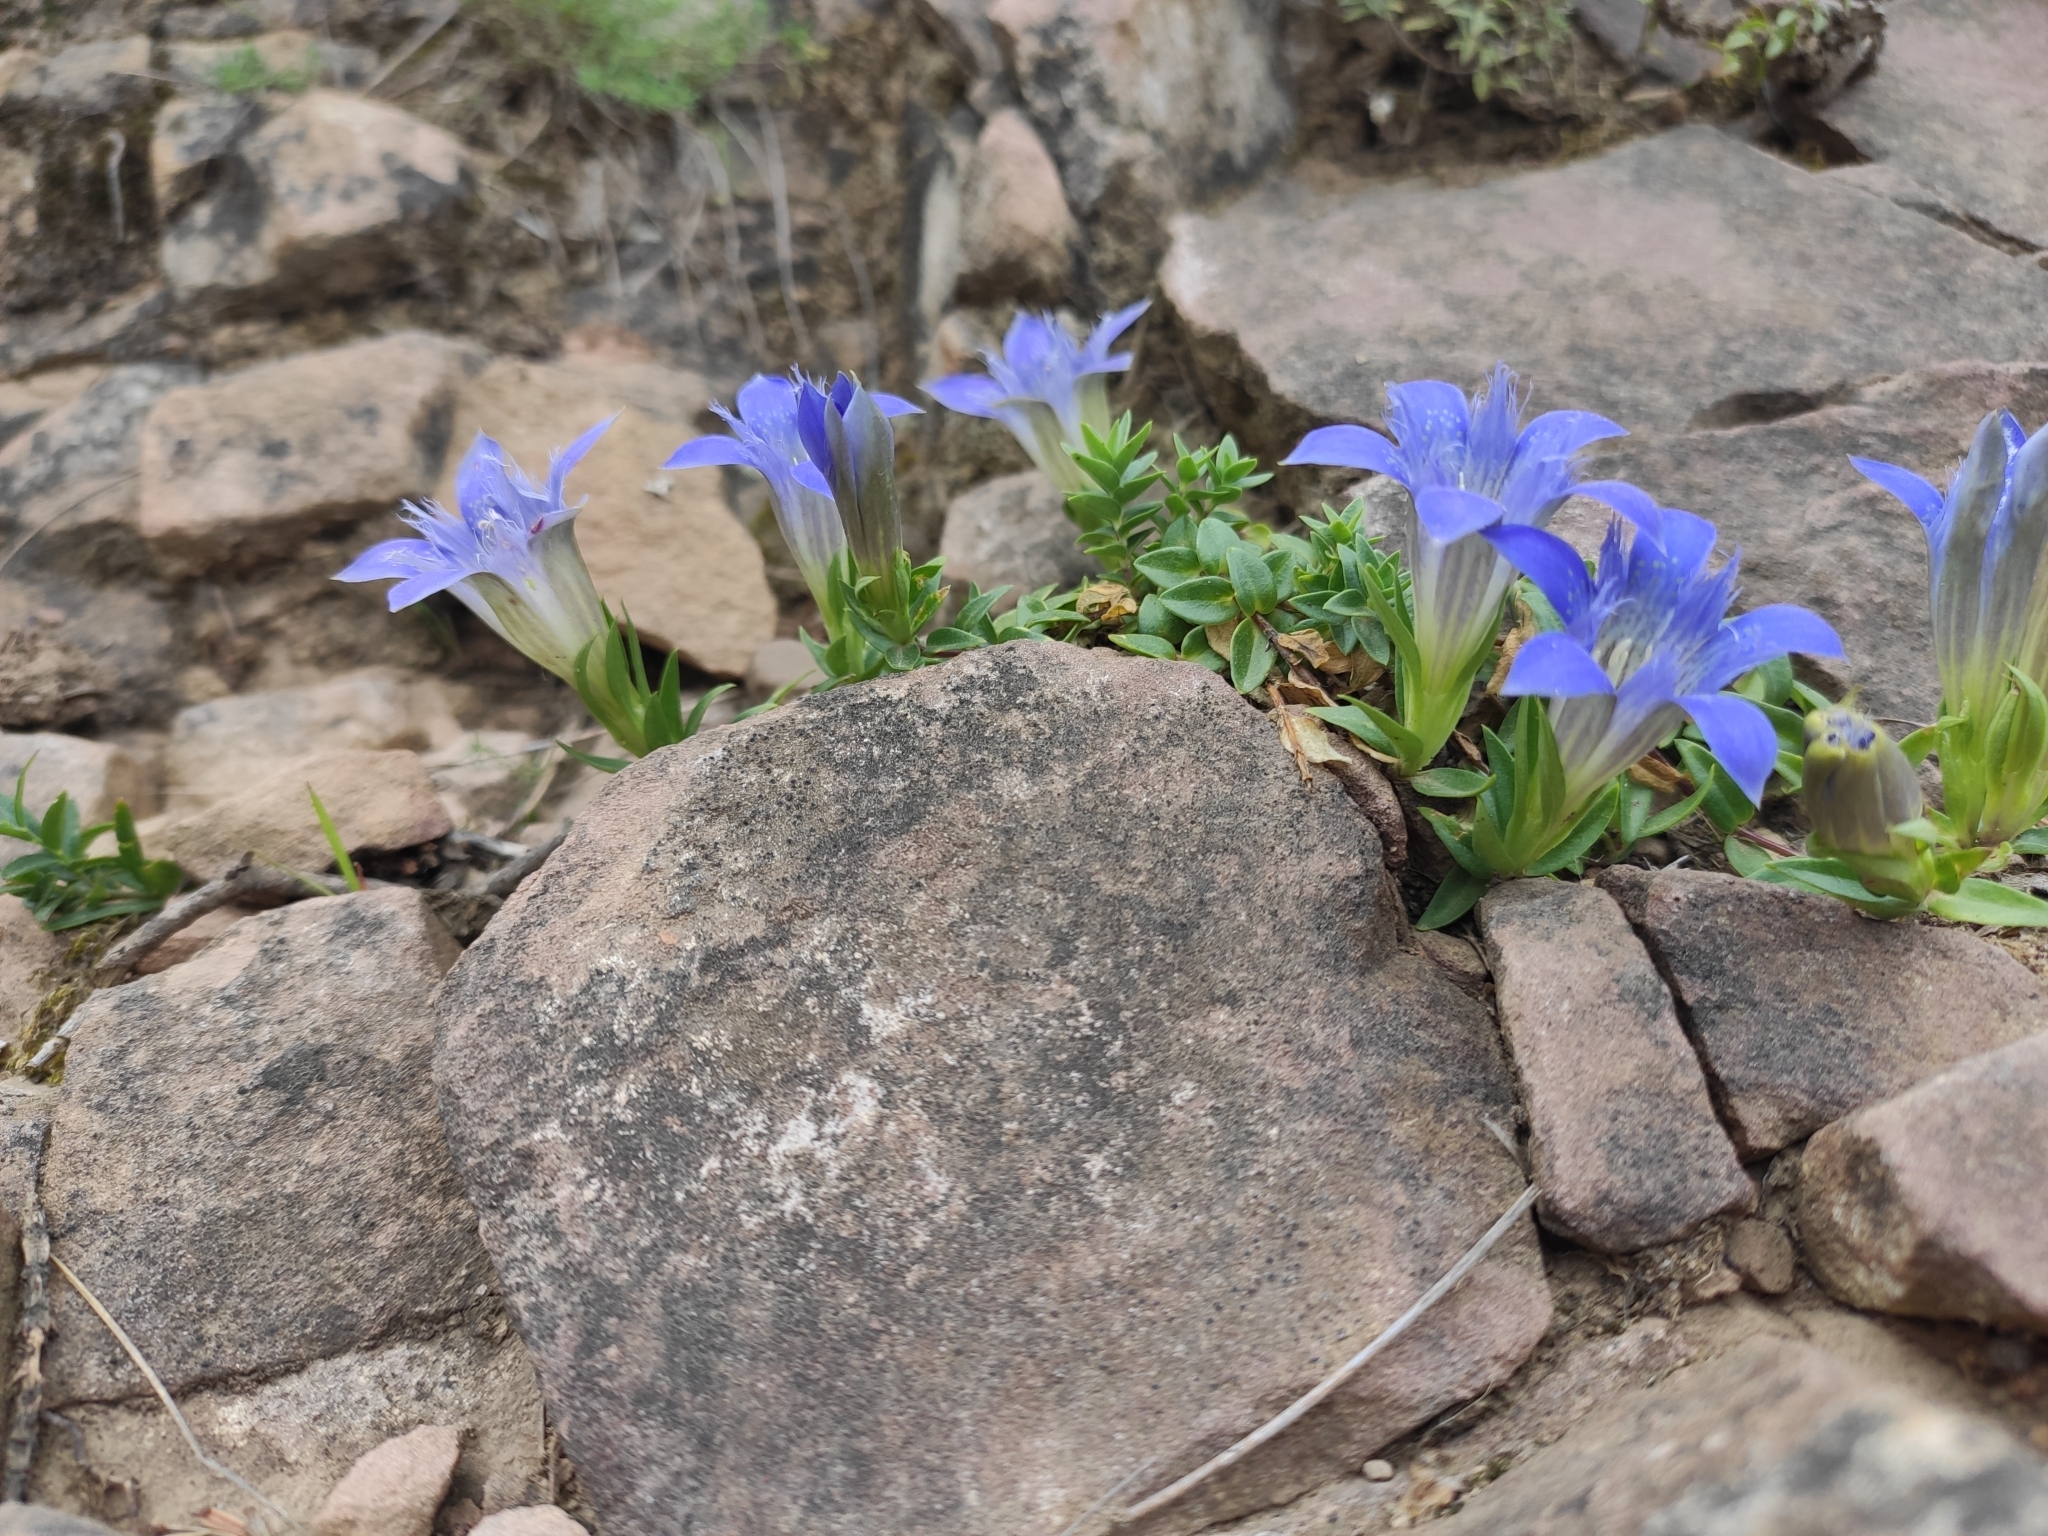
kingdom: Plantae
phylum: Tracheophyta
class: Magnoliopsida
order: Gentianales
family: Gentianaceae
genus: Gentiana
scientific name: Gentiana septemfida
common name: Crested gentian
